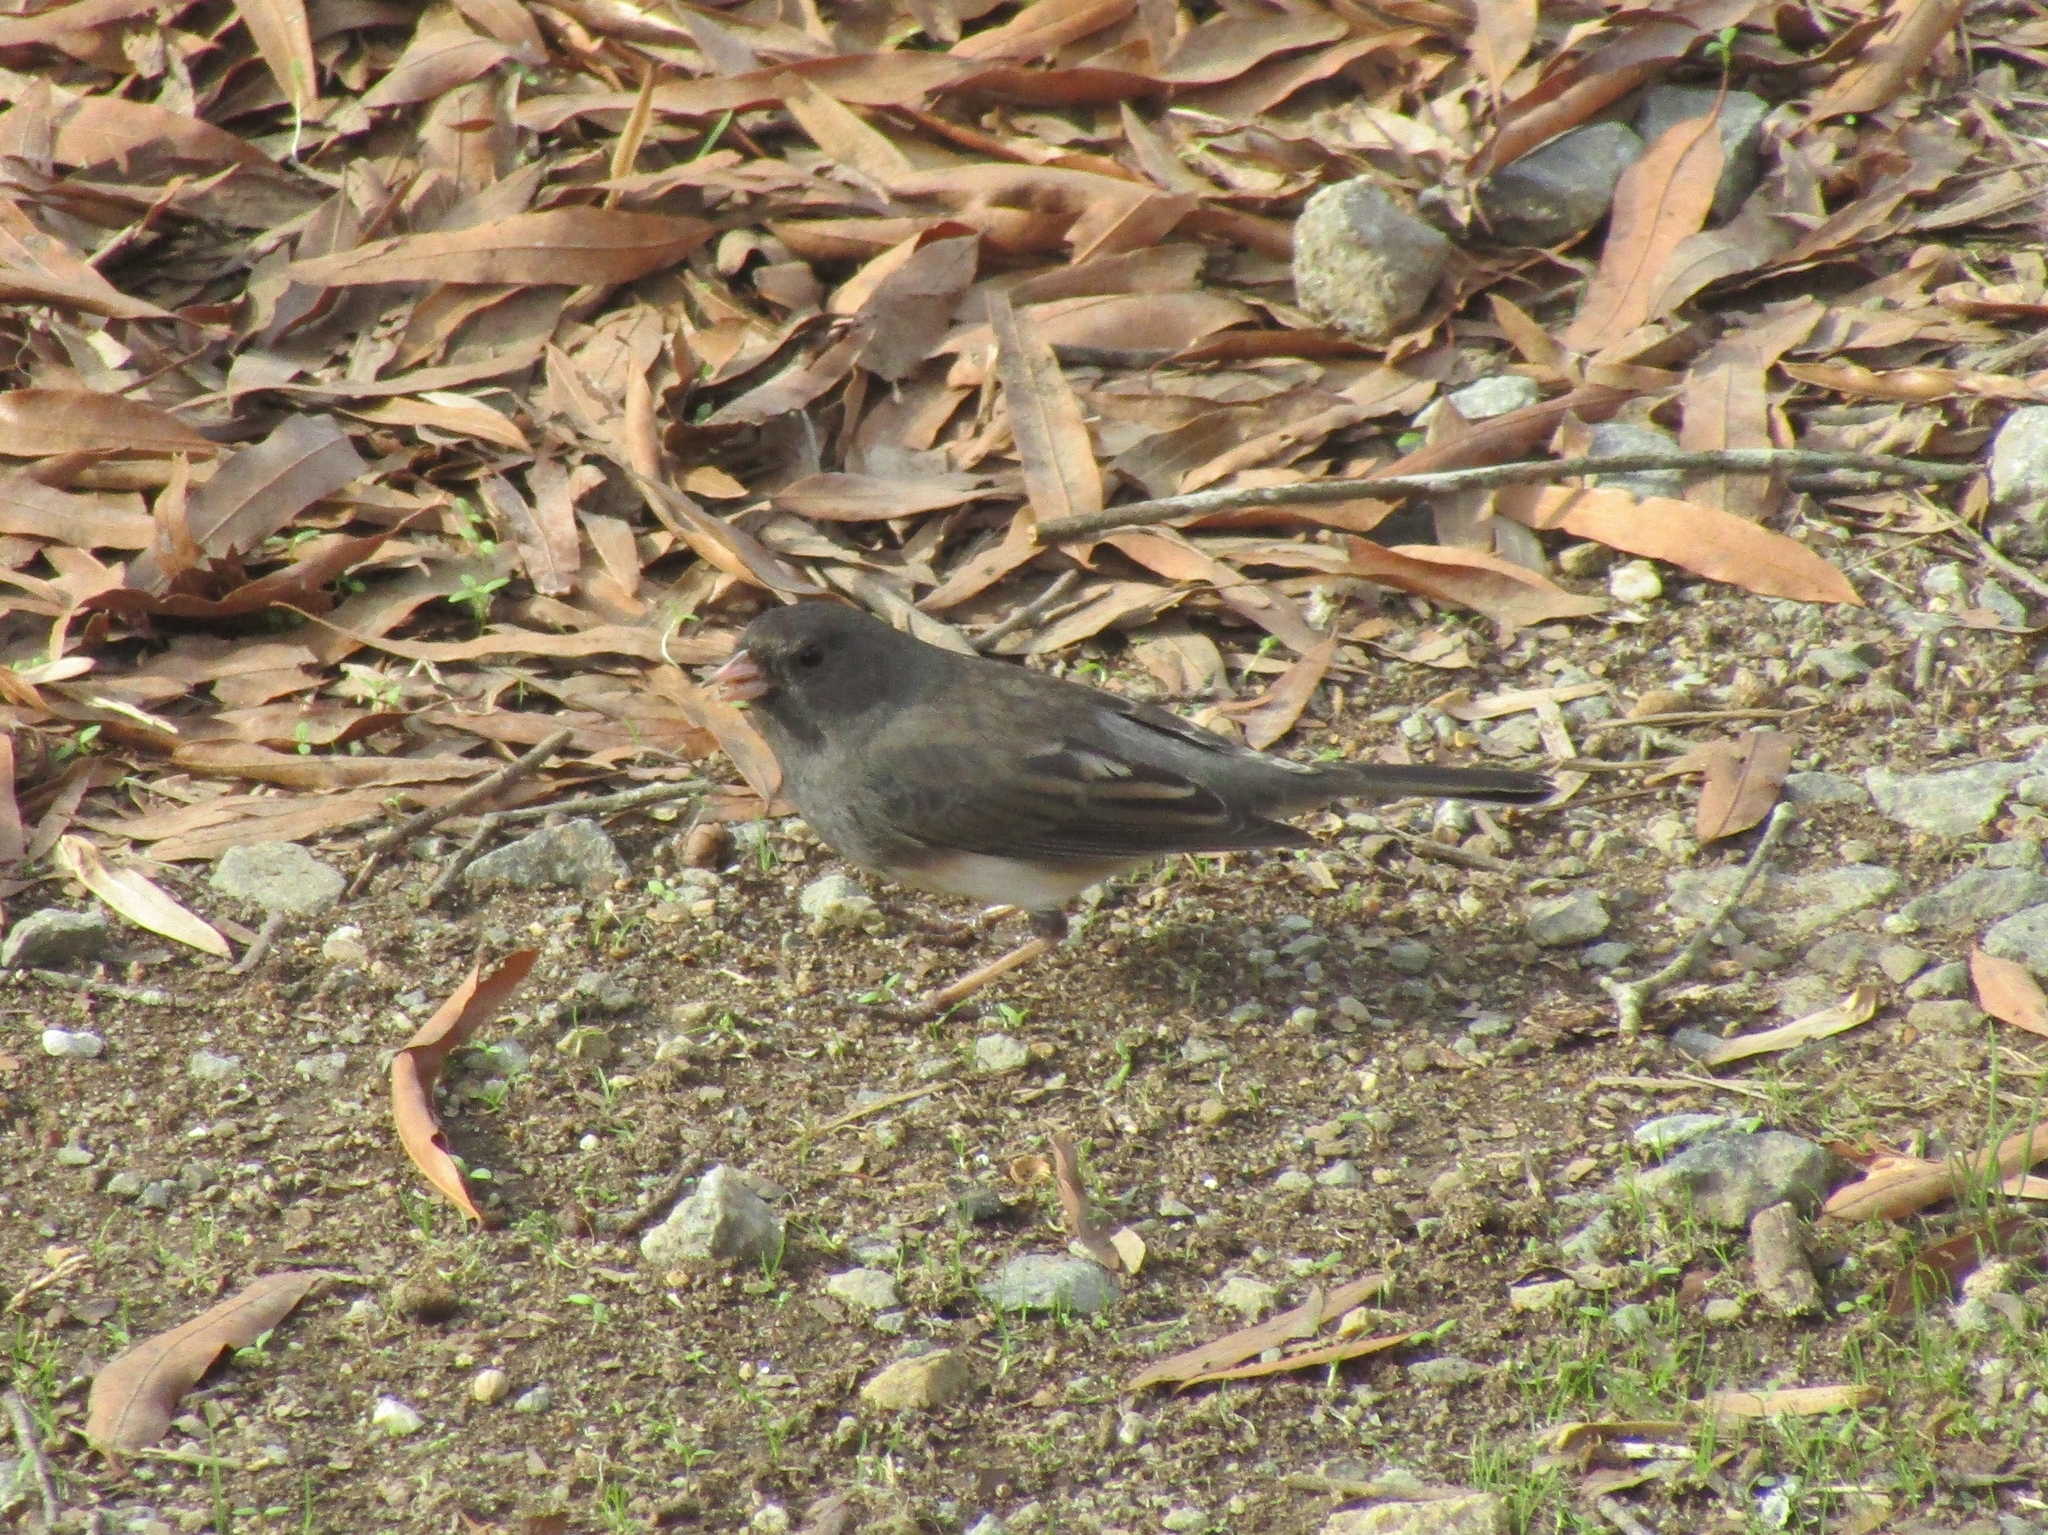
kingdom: Animalia
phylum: Chordata
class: Aves
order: Passeriformes
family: Passerellidae
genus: Junco
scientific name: Junco hyemalis
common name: Dark-eyed junco
